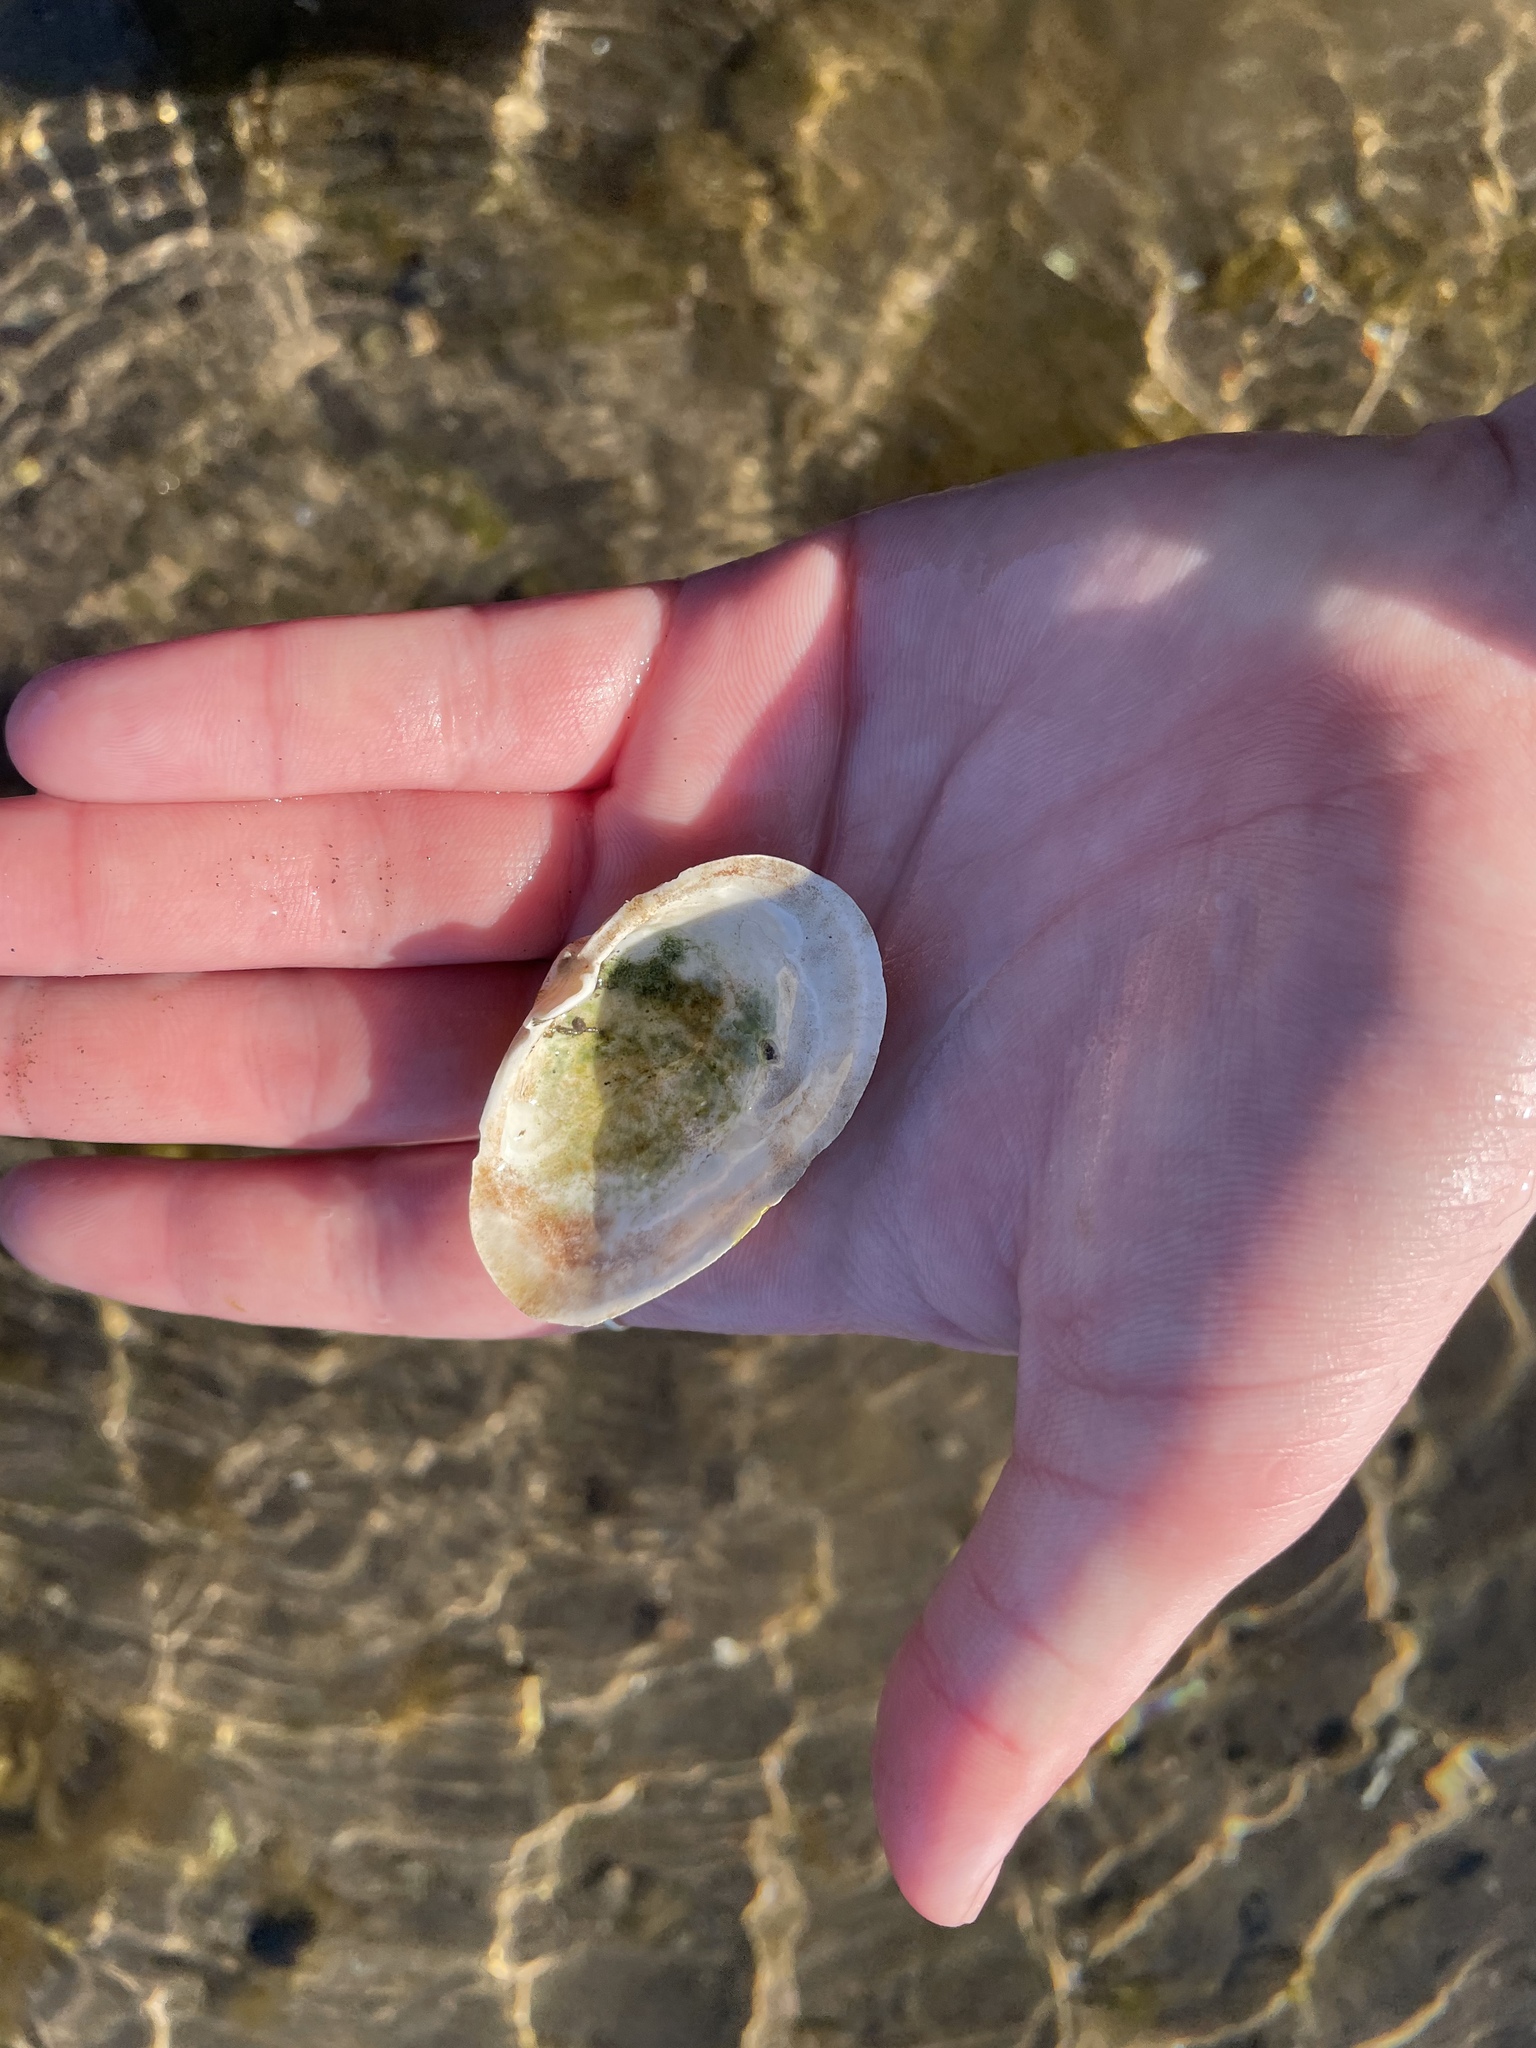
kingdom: Animalia
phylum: Mollusca
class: Bivalvia
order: Myida
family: Myidae
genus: Mya
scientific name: Mya arenaria
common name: Soft-shelled clam
